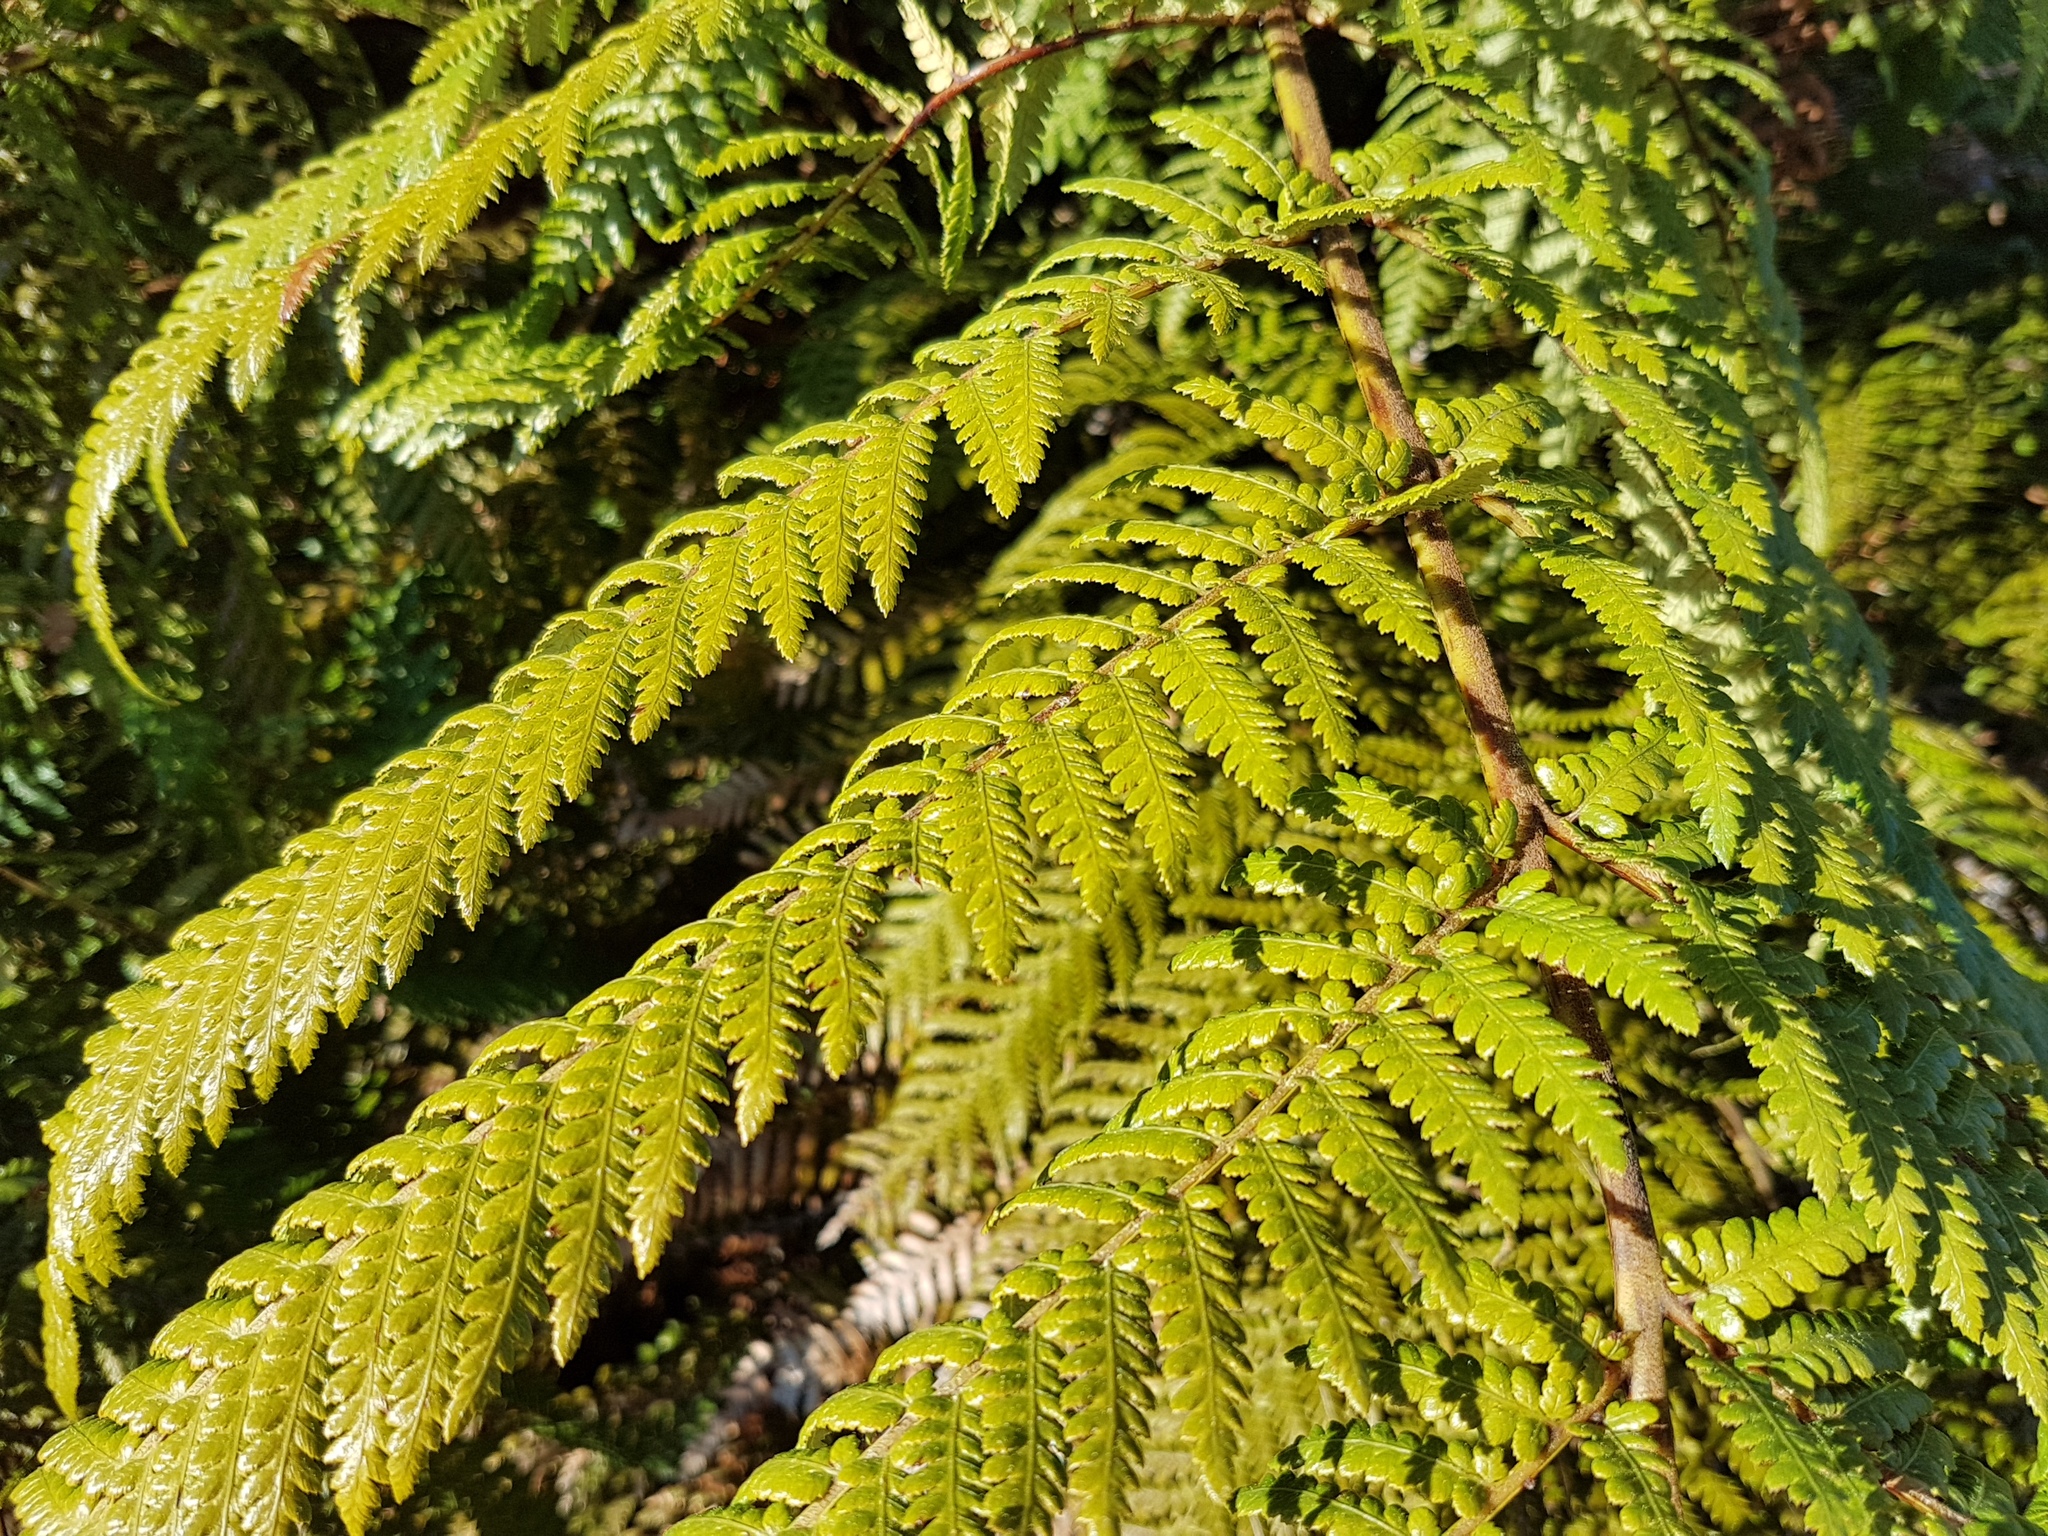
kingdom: Plantae
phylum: Tracheophyta
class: Polypodiopsida
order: Cyatheales
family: Dicksoniaceae
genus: Dicksonia
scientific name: Dicksonia squarrosa
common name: Hard treefern
